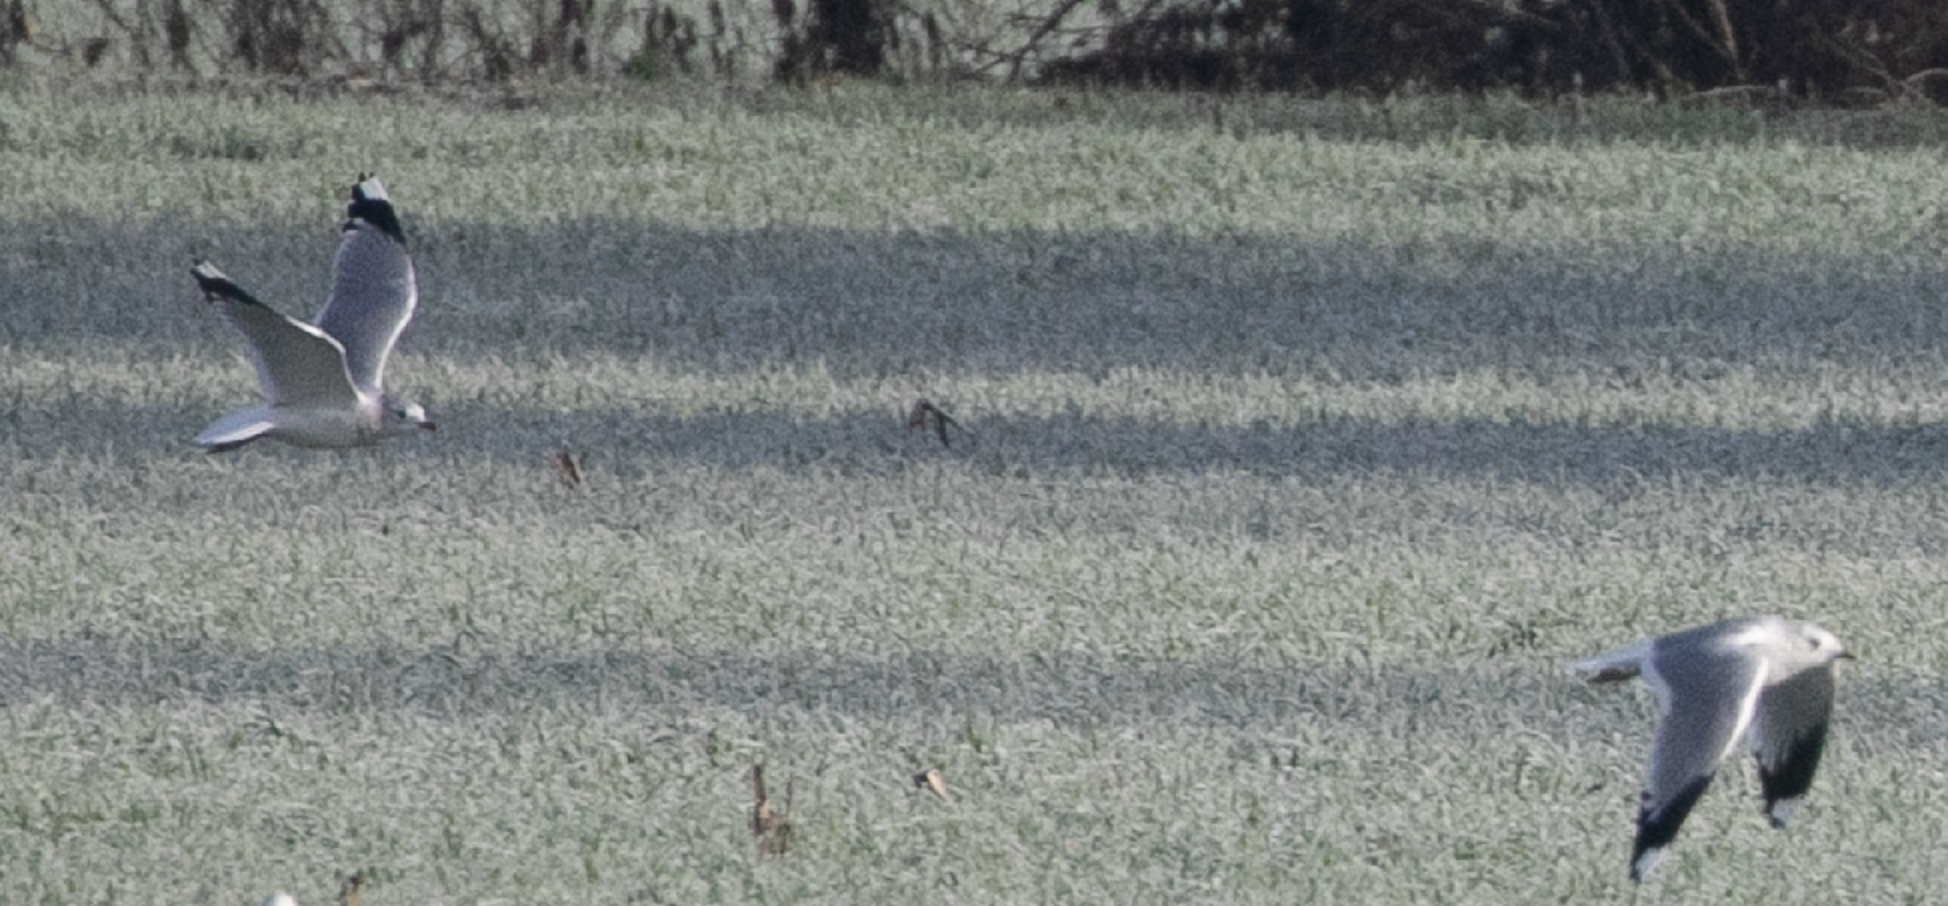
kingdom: Animalia
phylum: Chordata
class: Aves
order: Charadriiformes
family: Laridae
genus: Larus
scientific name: Larus canus
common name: Mew gull
